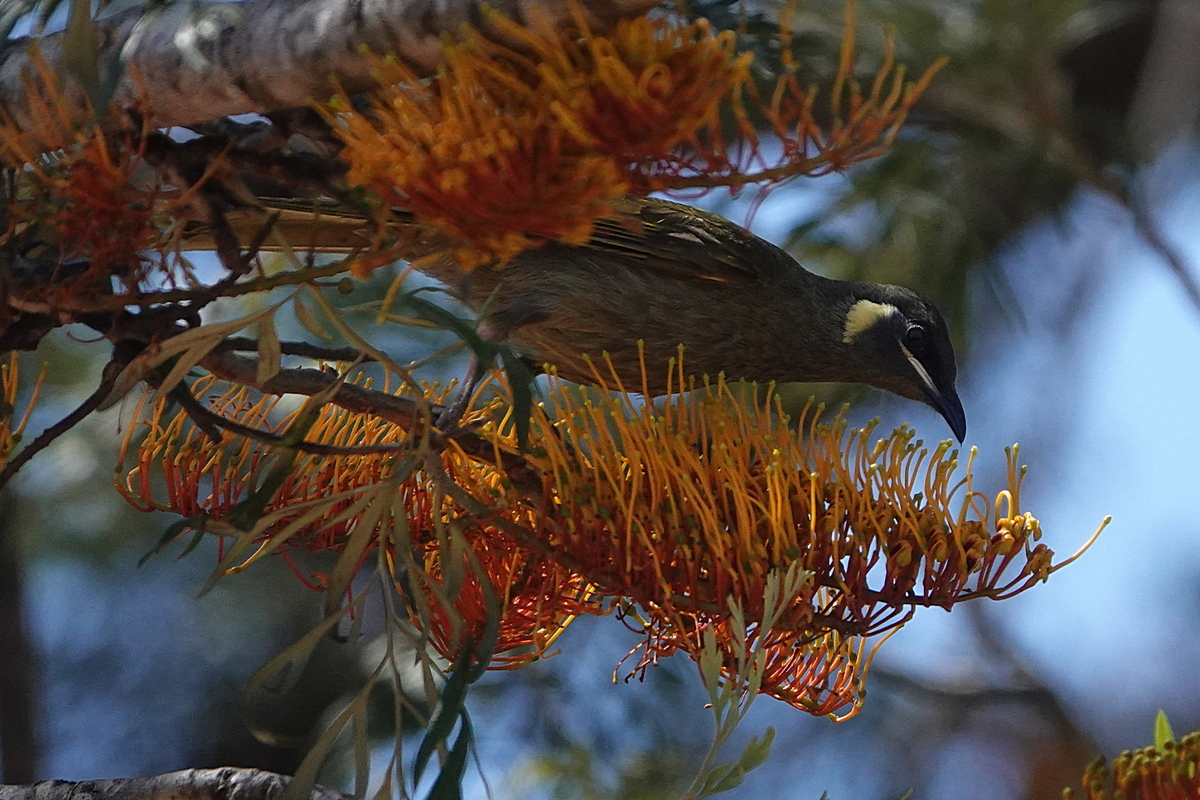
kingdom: Animalia
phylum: Chordata
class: Aves
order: Passeriformes
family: Meliphagidae
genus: Meliphaga
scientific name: Meliphaga lewinii
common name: Lewin's honeyeater
